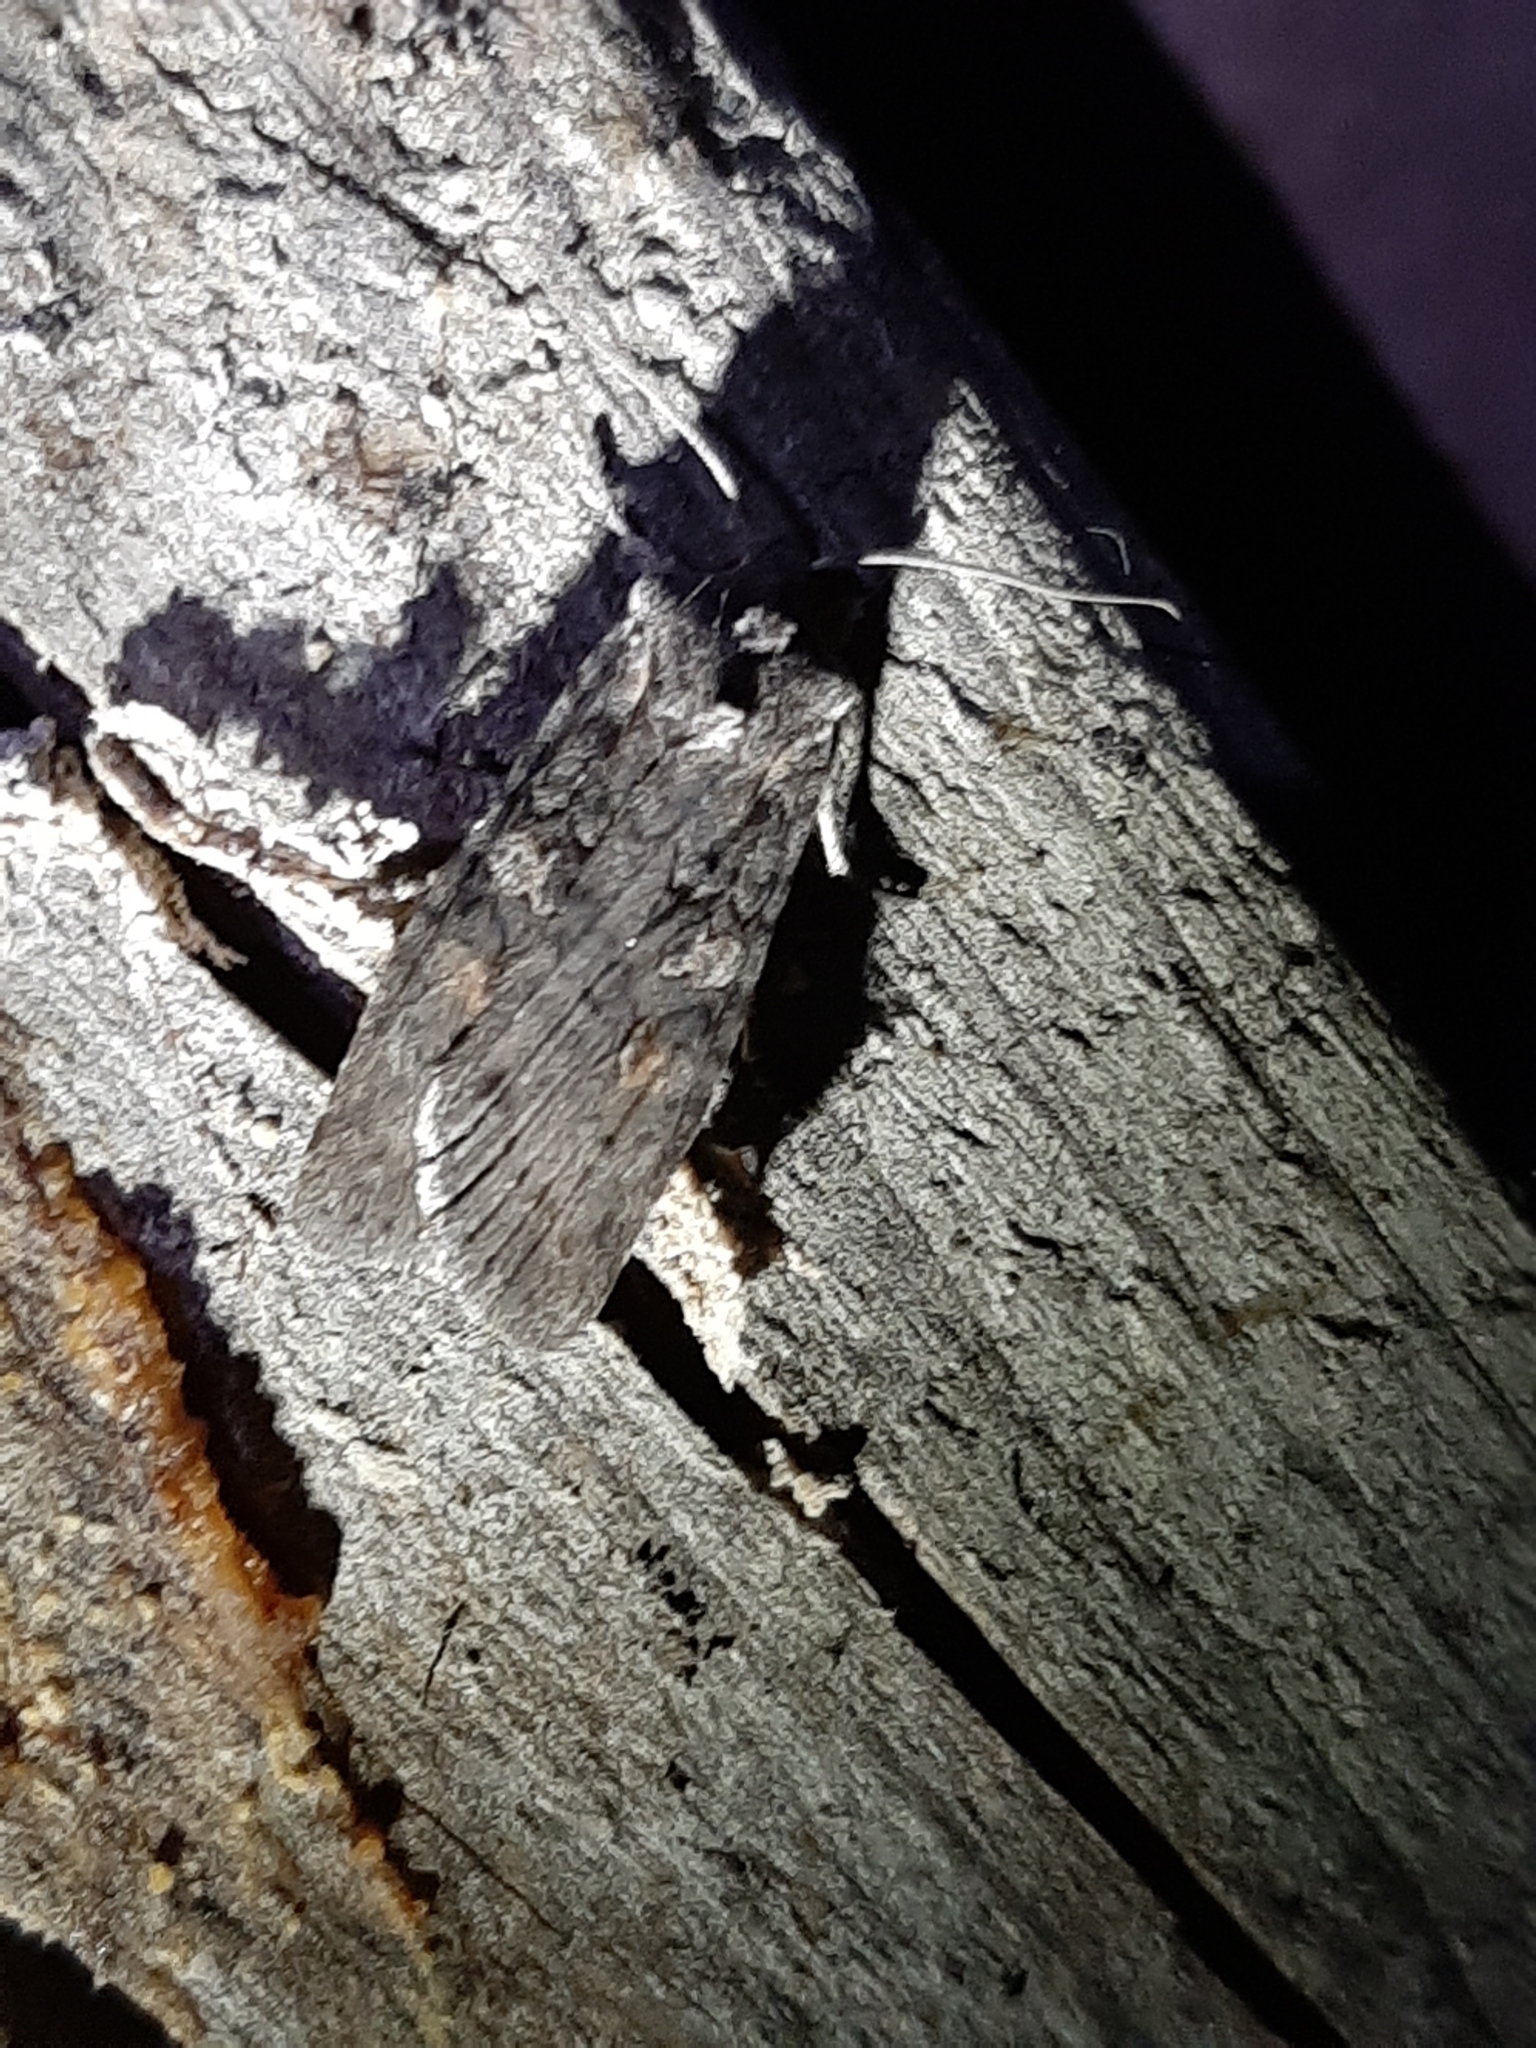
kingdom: Animalia
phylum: Arthropoda
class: Insecta
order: Lepidoptera
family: Noctuidae
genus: Lithophane
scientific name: Lithophane laticinerea
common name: Broad ashen pinion
